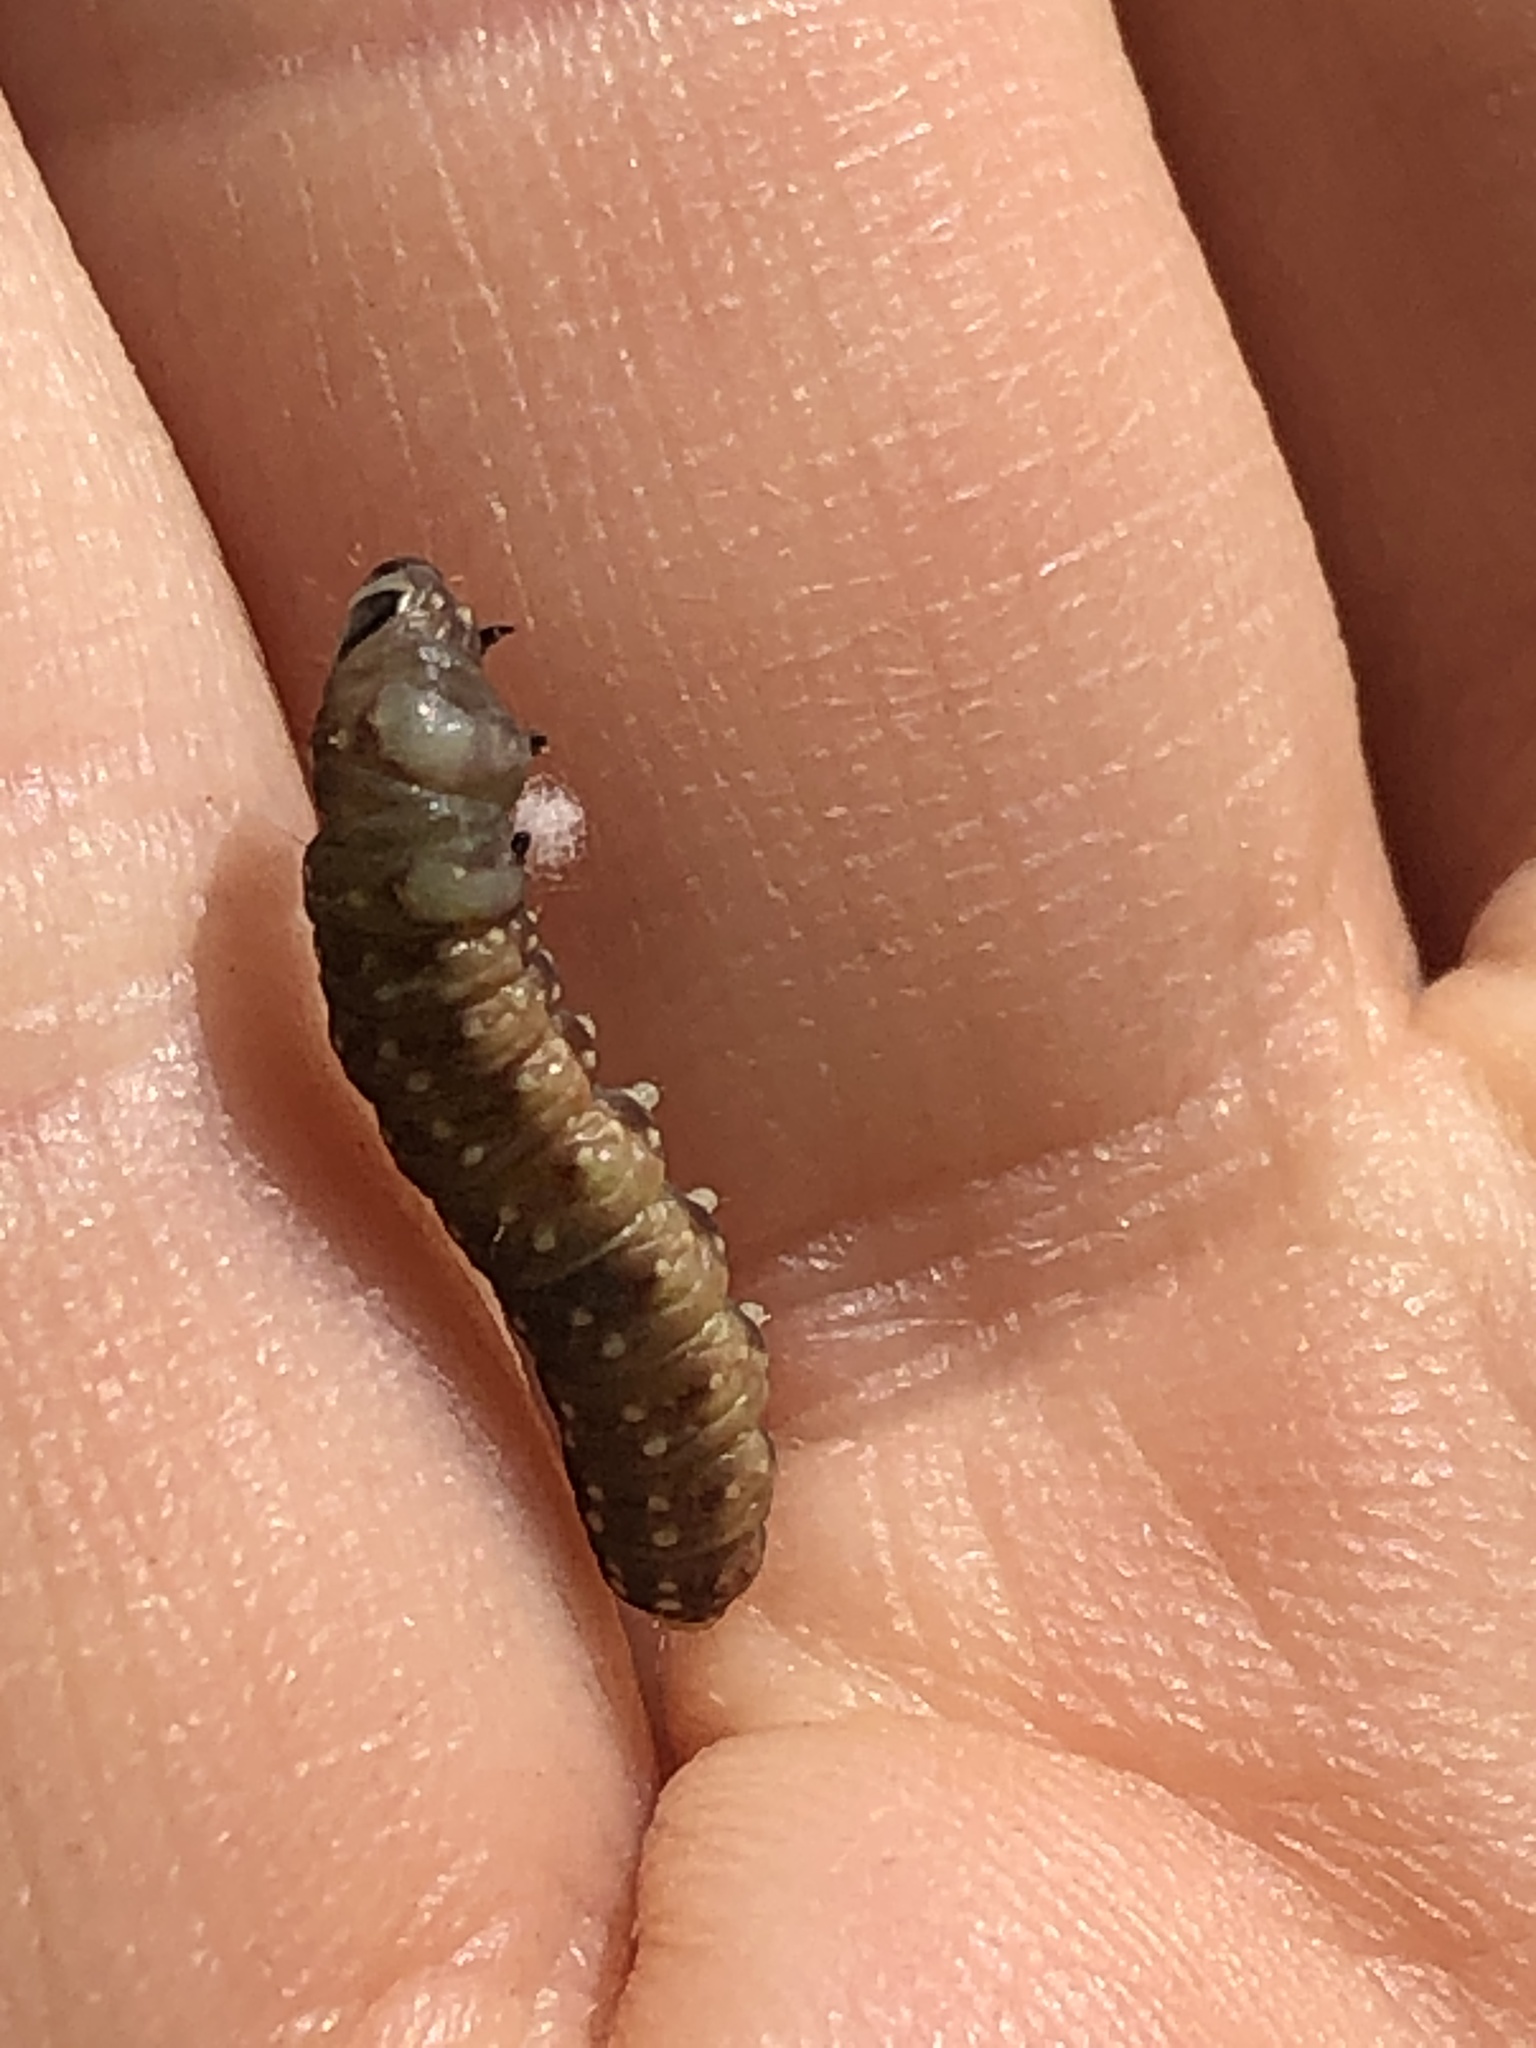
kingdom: Animalia
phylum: Arthropoda
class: Insecta
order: Lepidoptera
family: Tortricidae
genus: Choristoneura
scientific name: Choristoneura fumiferana
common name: Spruce budworm
